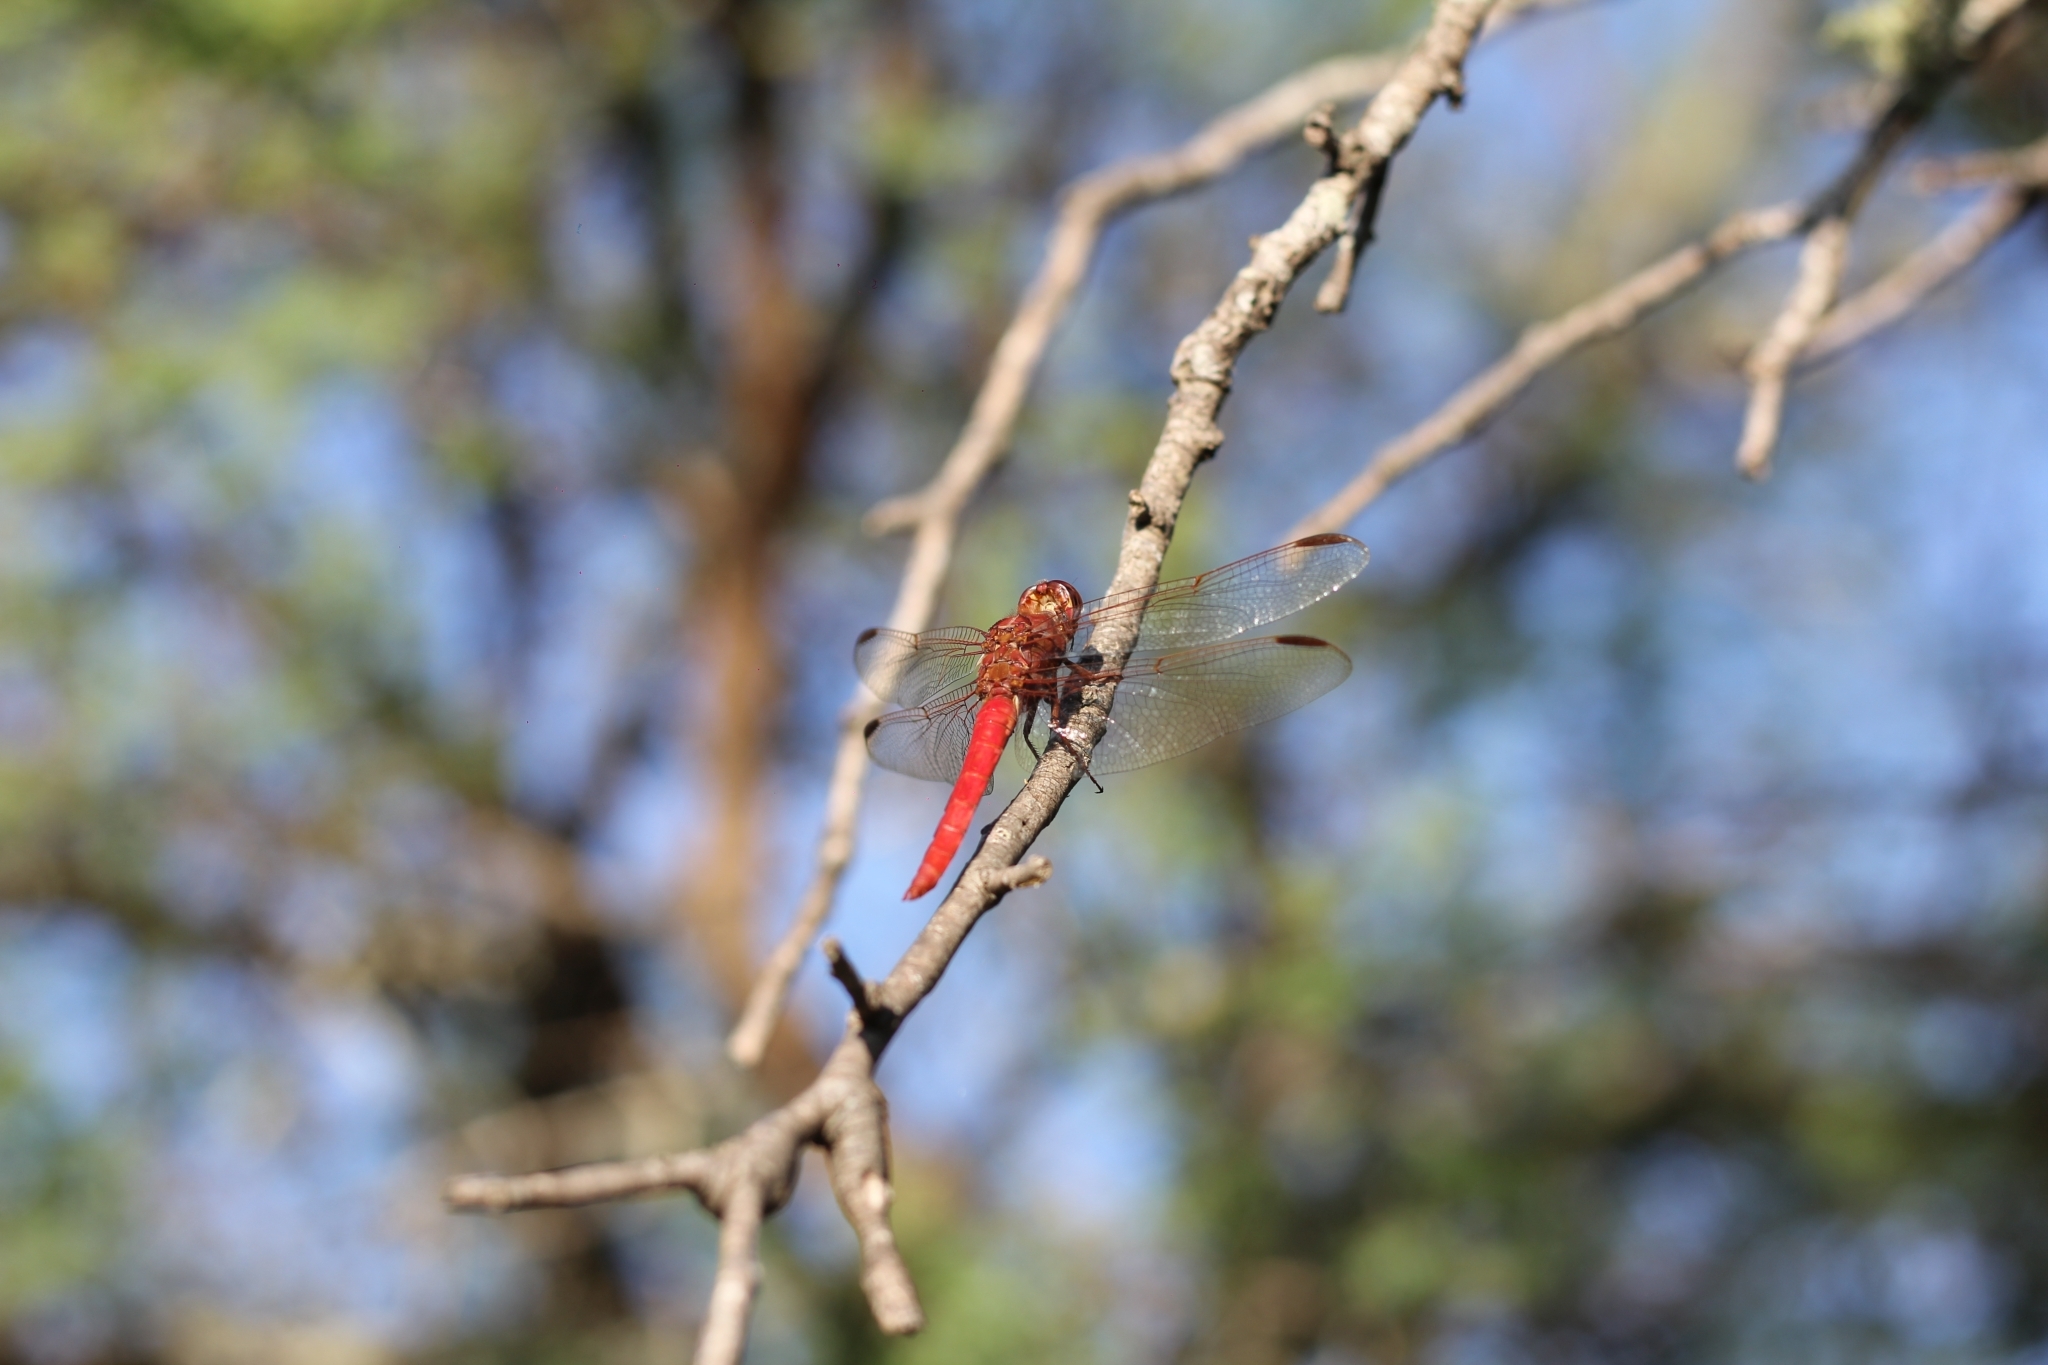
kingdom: Animalia
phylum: Arthropoda
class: Insecta
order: Odonata
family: Libellulidae
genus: Orthemis
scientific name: Orthemis nodiplaga
